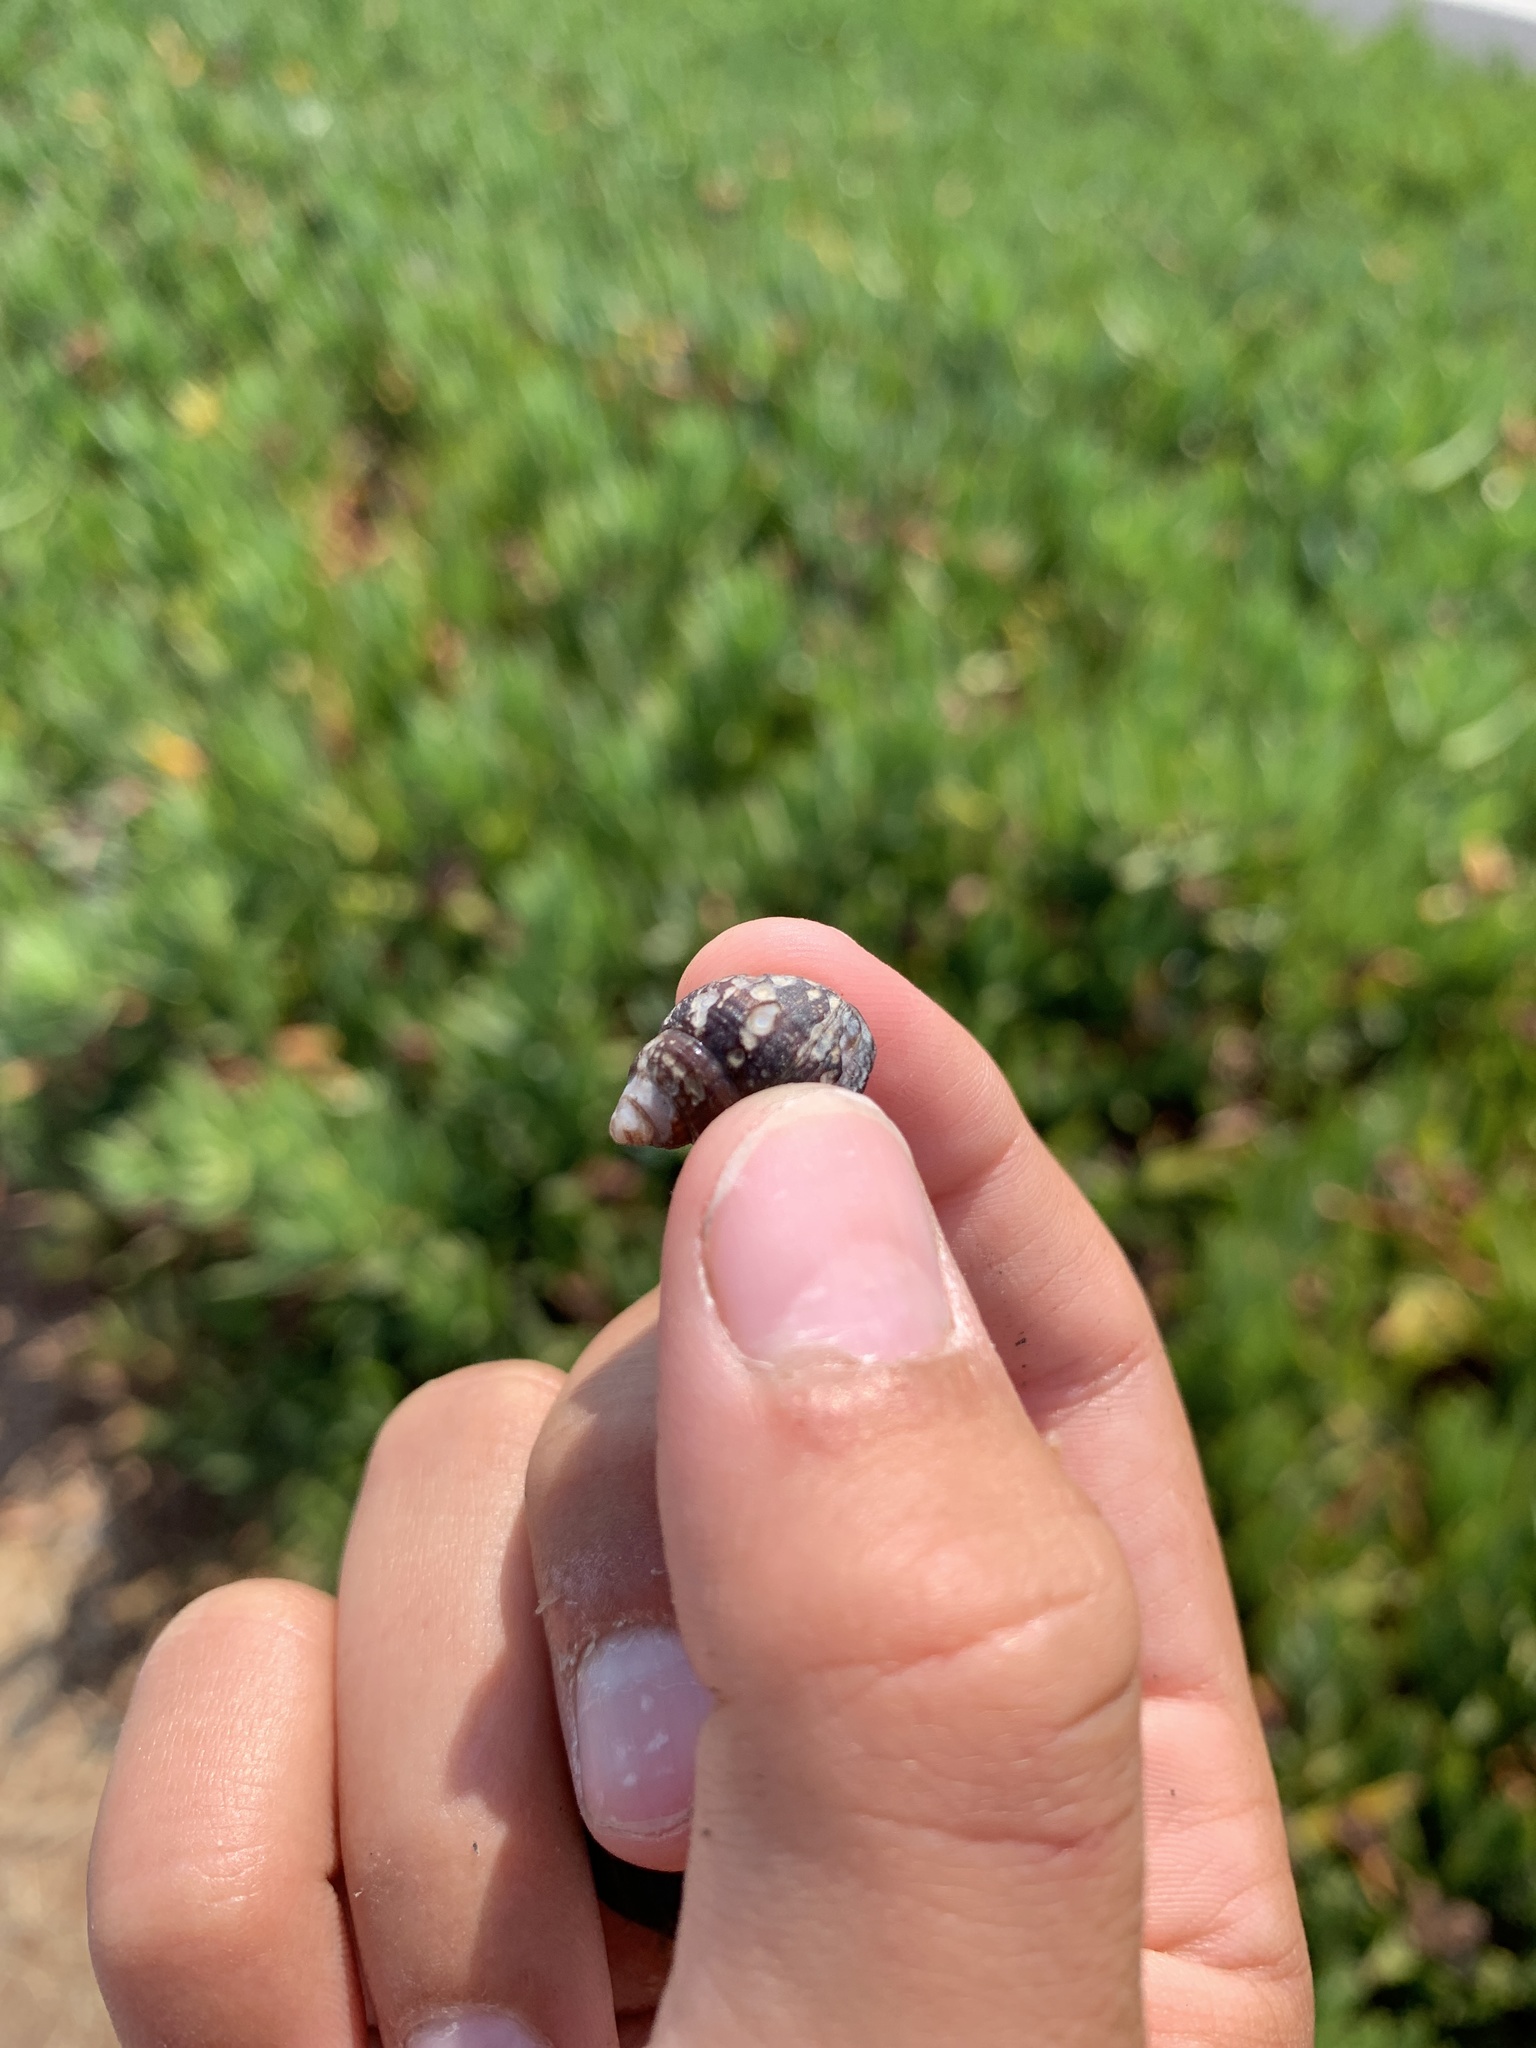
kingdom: Animalia
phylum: Mollusca
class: Gastropoda
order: Neogastropoda
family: Nassariidae
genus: Ilyanassa
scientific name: Ilyanassa obsoleta
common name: Eastern mudsnail
